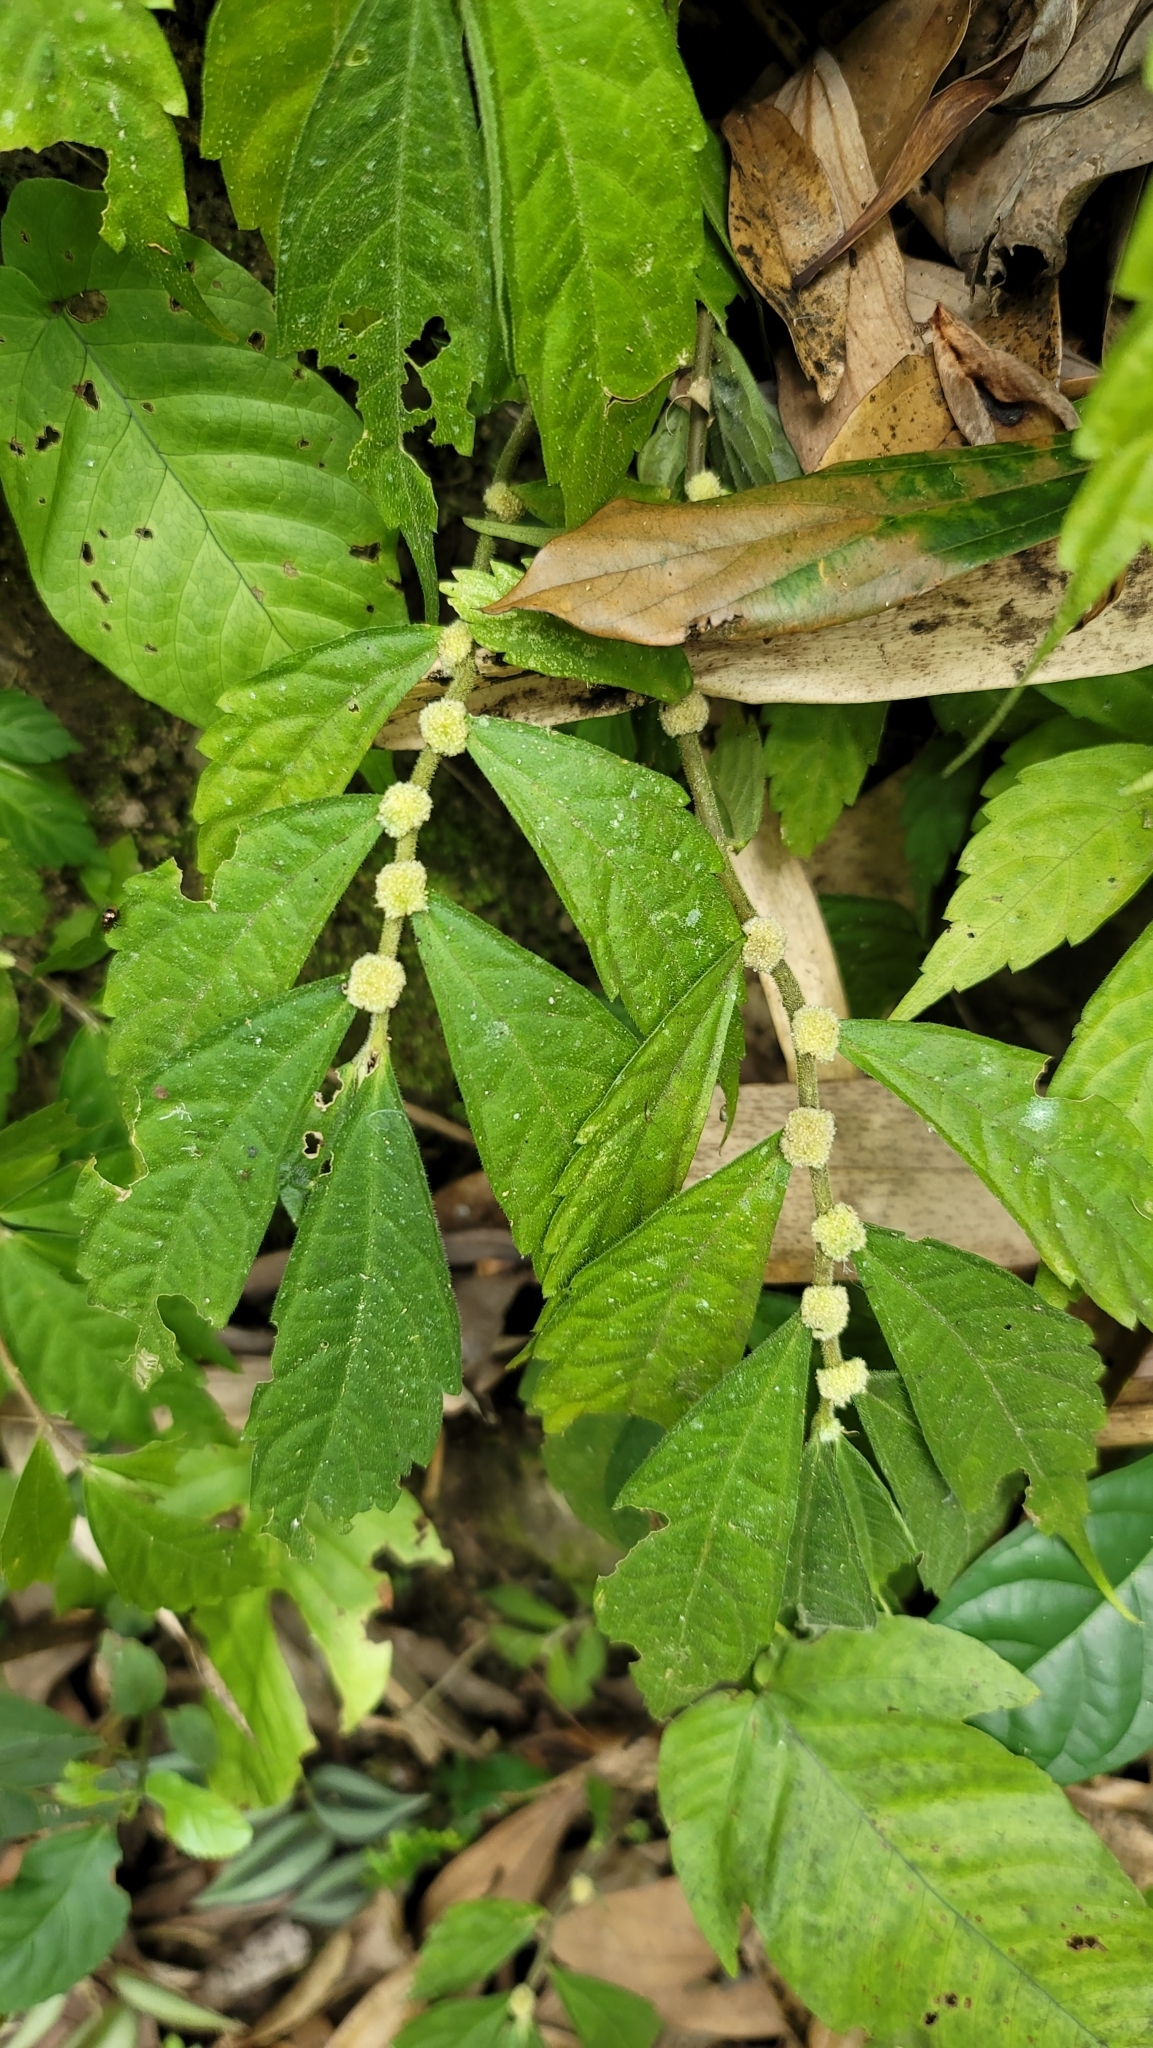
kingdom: Plantae
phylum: Tracheophyta
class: Magnoliopsida
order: Rosales
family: Urticaceae
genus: Elatostema
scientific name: Elatostema lineolatum
